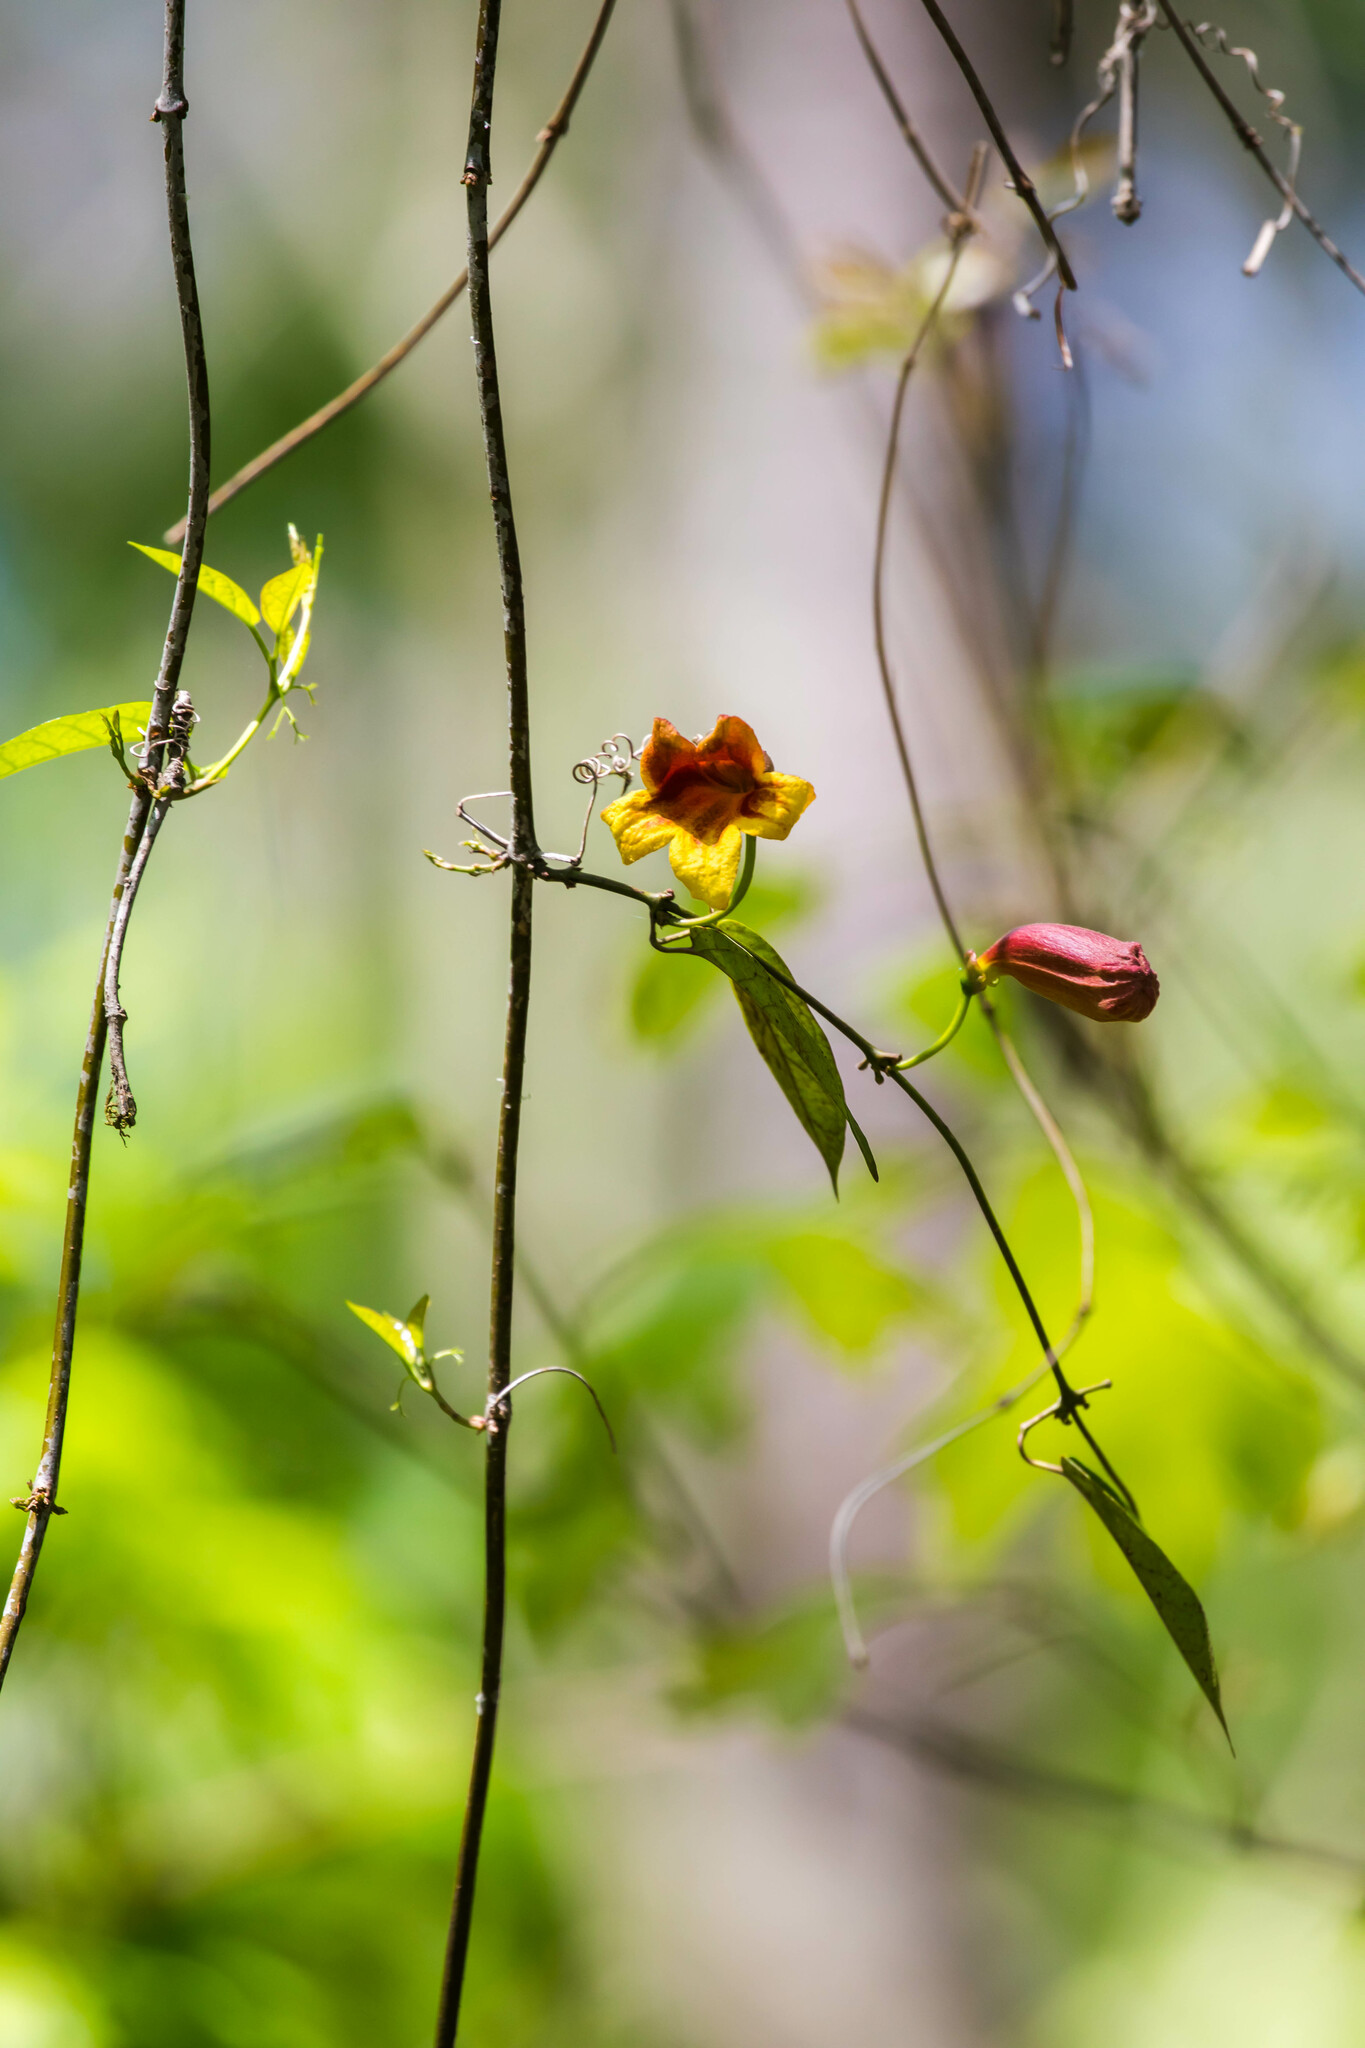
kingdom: Plantae
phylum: Tracheophyta
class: Magnoliopsida
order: Lamiales
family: Bignoniaceae
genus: Bignonia
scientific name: Bignonia capreolata
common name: Crossvine
